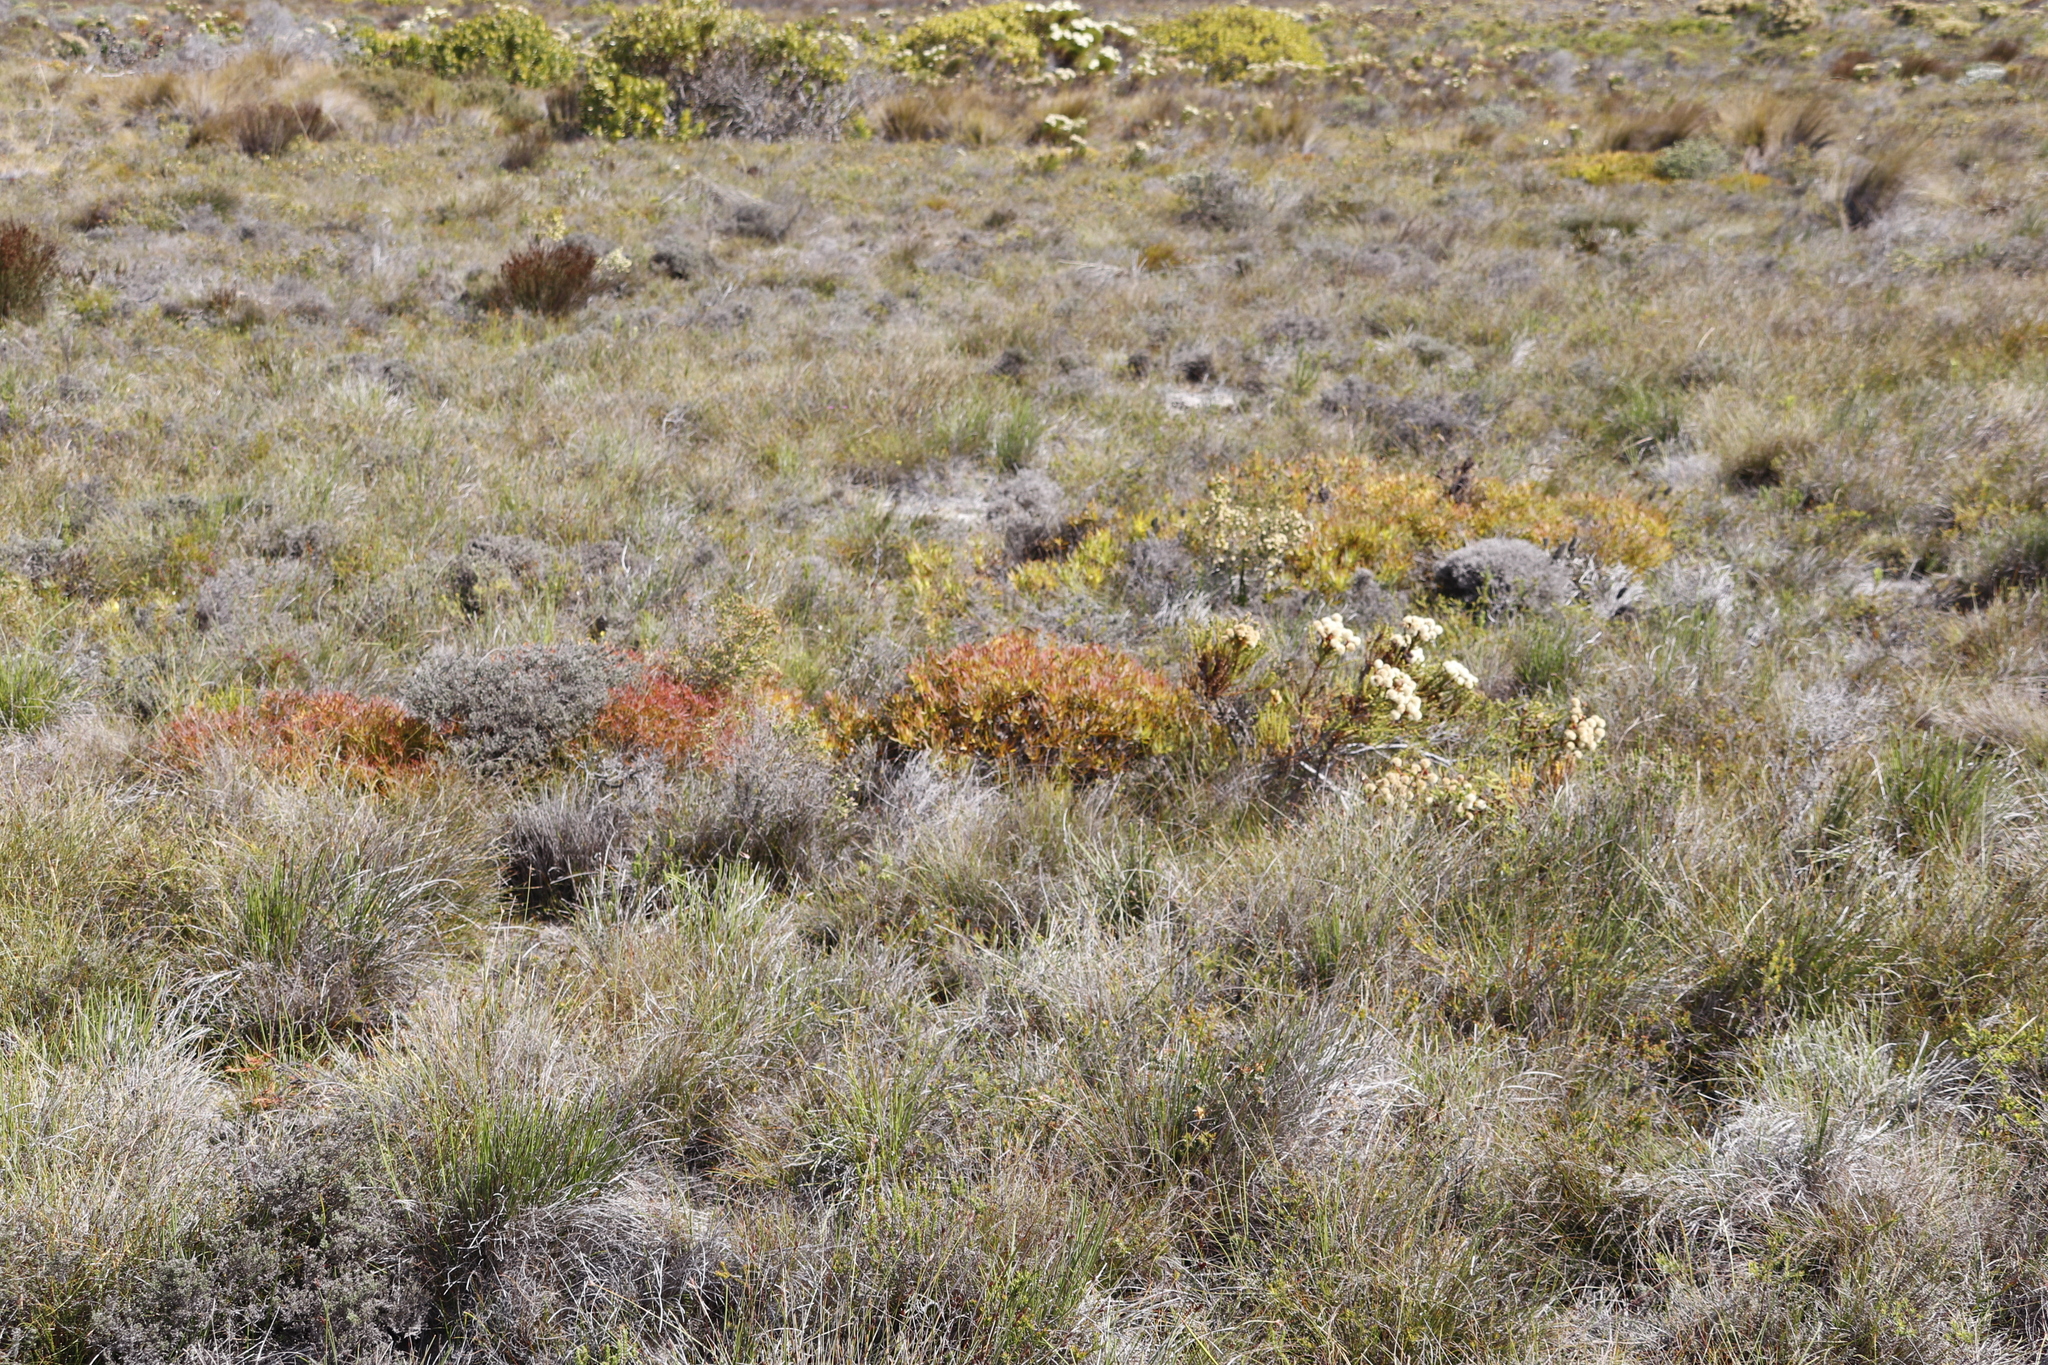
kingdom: Plantae
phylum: Tracheophyta
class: Magnoliopsida
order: Proteales
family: Proteaceae
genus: Leucadendron
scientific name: Leucadendron salignum
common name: Common sunshine conebush
